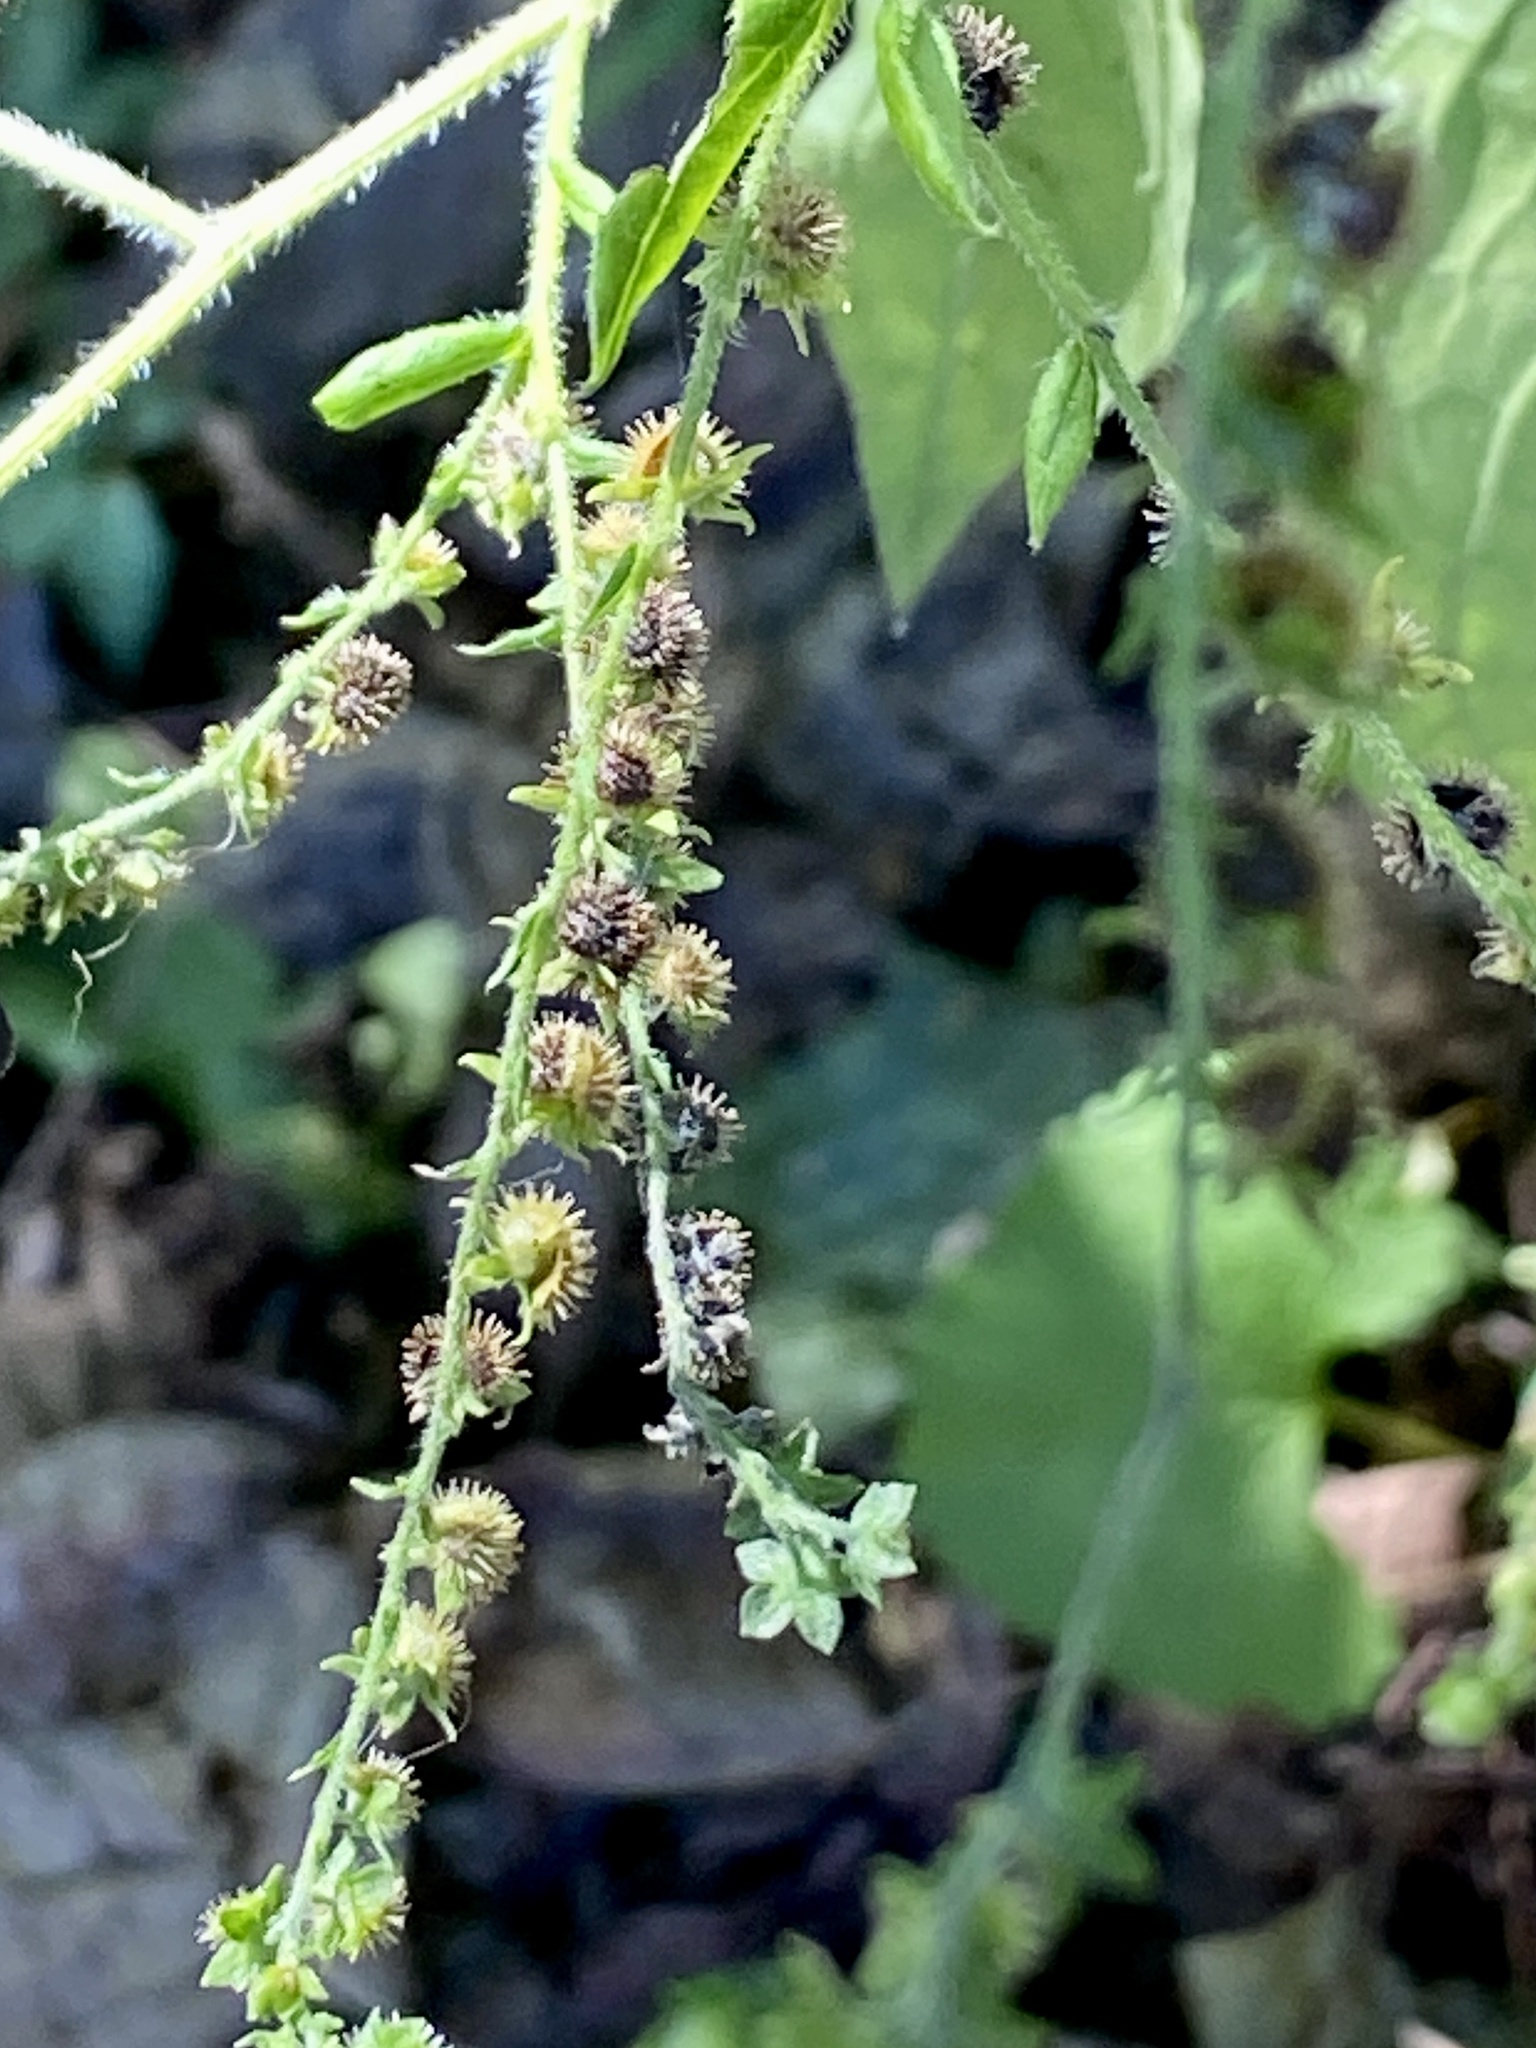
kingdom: Plantae
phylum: Tracheophyta
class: Magnoliopsida
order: Boraginales
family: Boraginaceae
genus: Hackelia
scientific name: Hackelia virginiana
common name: Beggar's-lice
